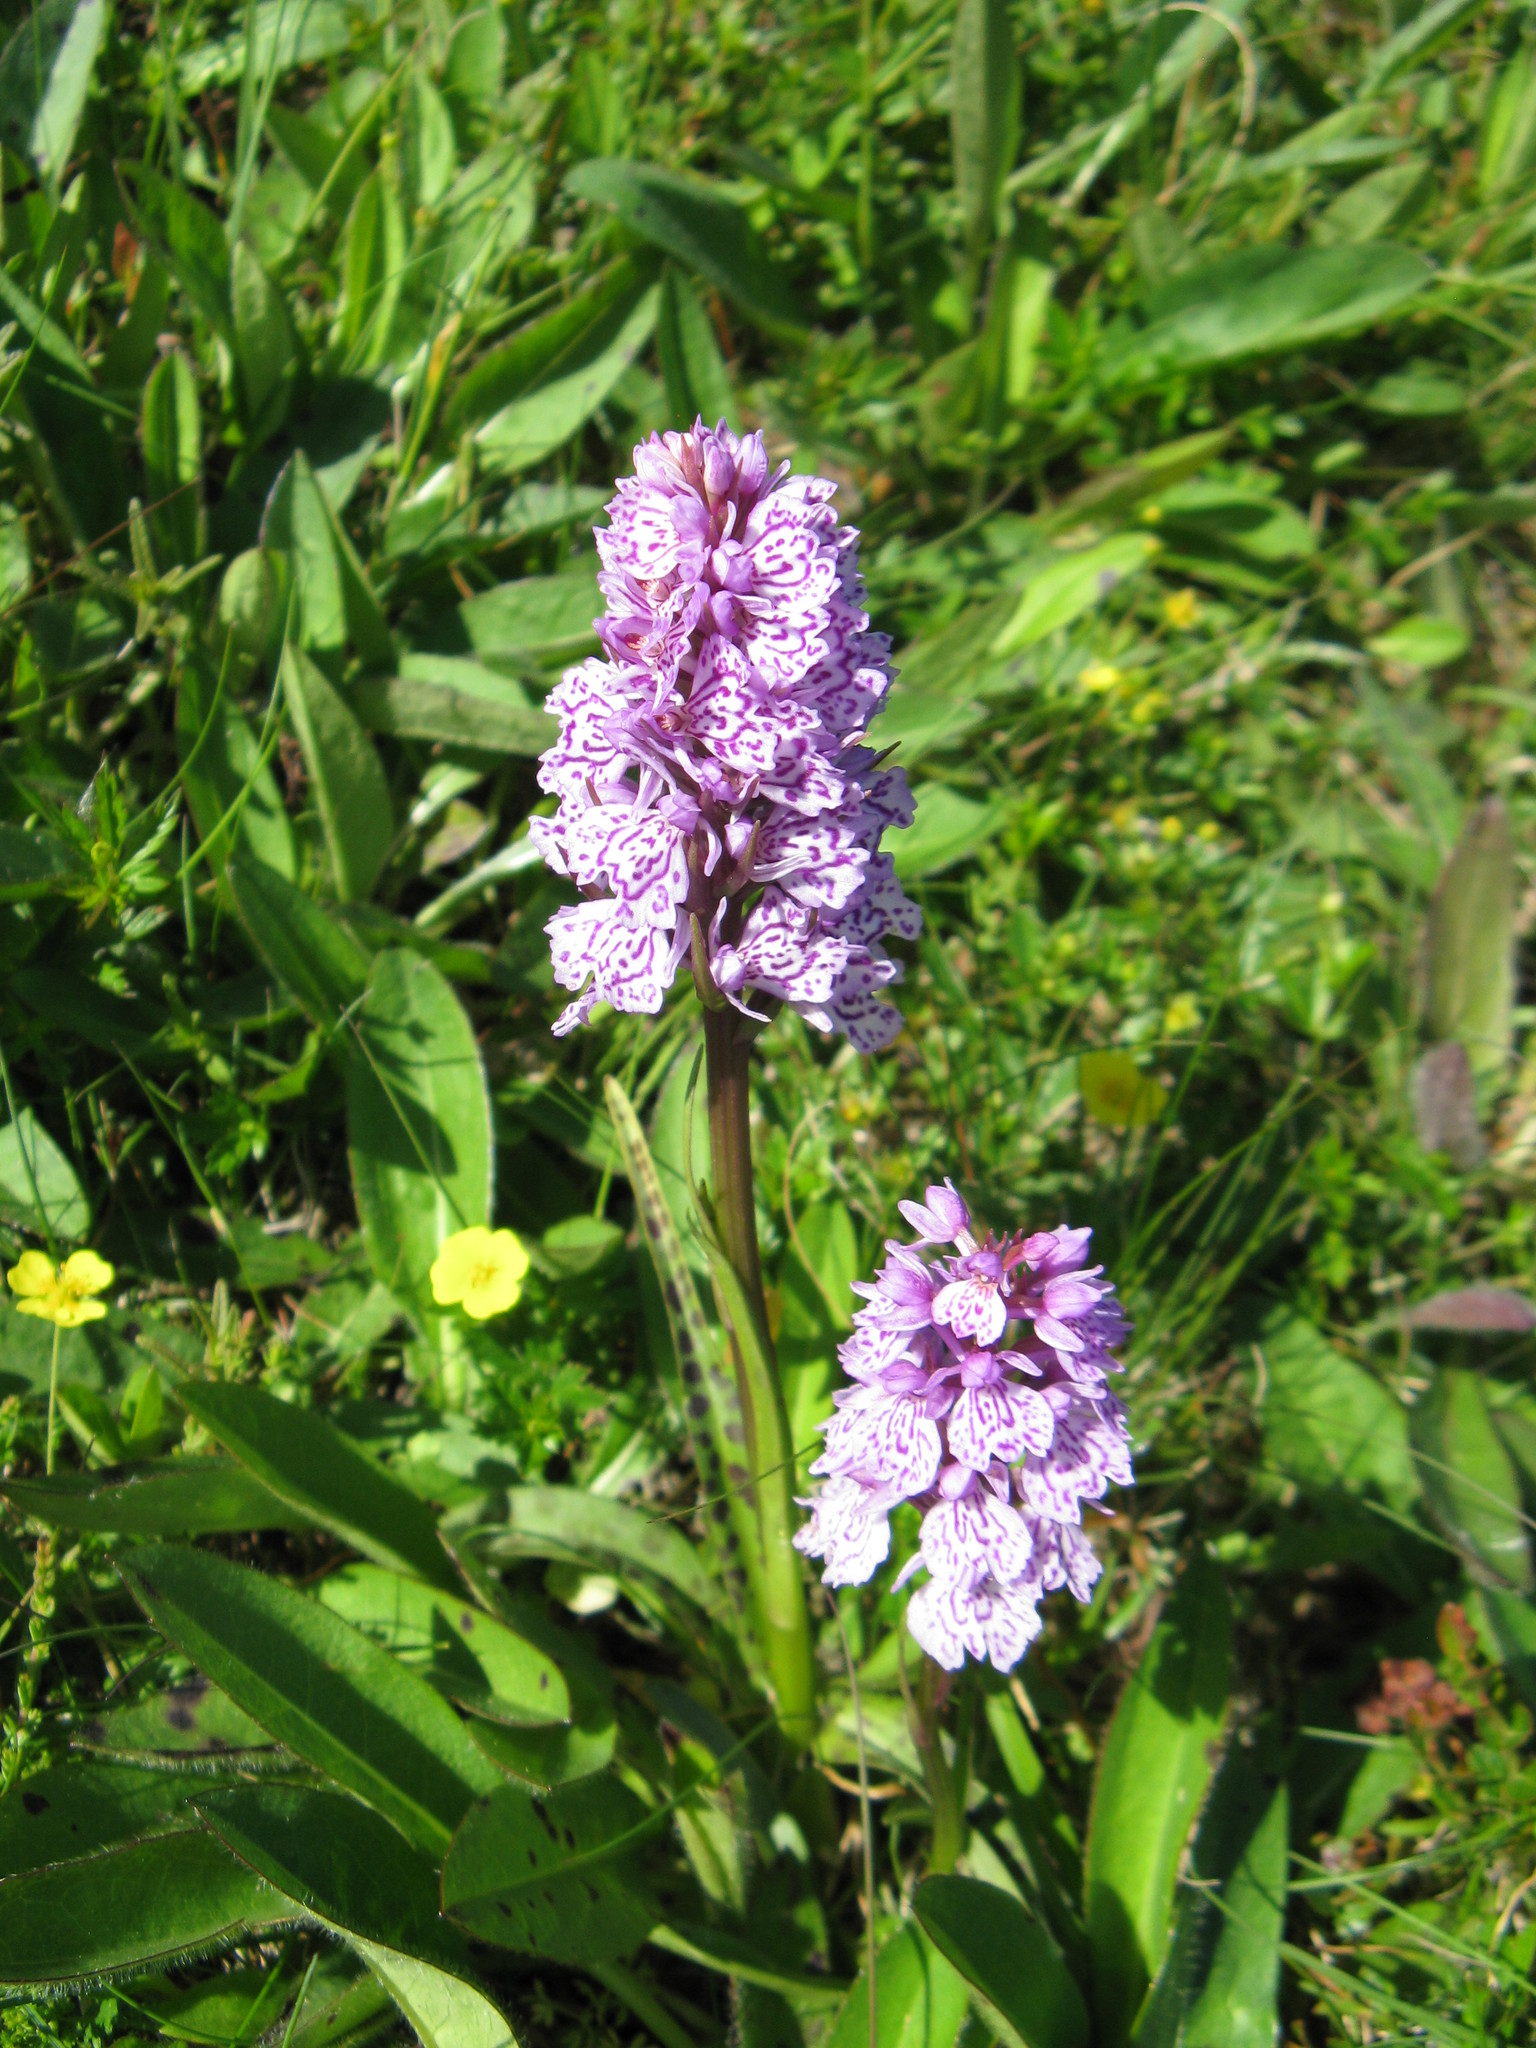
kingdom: Plantae
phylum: Tracheophyta
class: Liliopsida
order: Asparagales
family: Orchidaceae
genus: Dactylorhiza
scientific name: Dactylorhiza maculata
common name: Heath spotted-orchid
